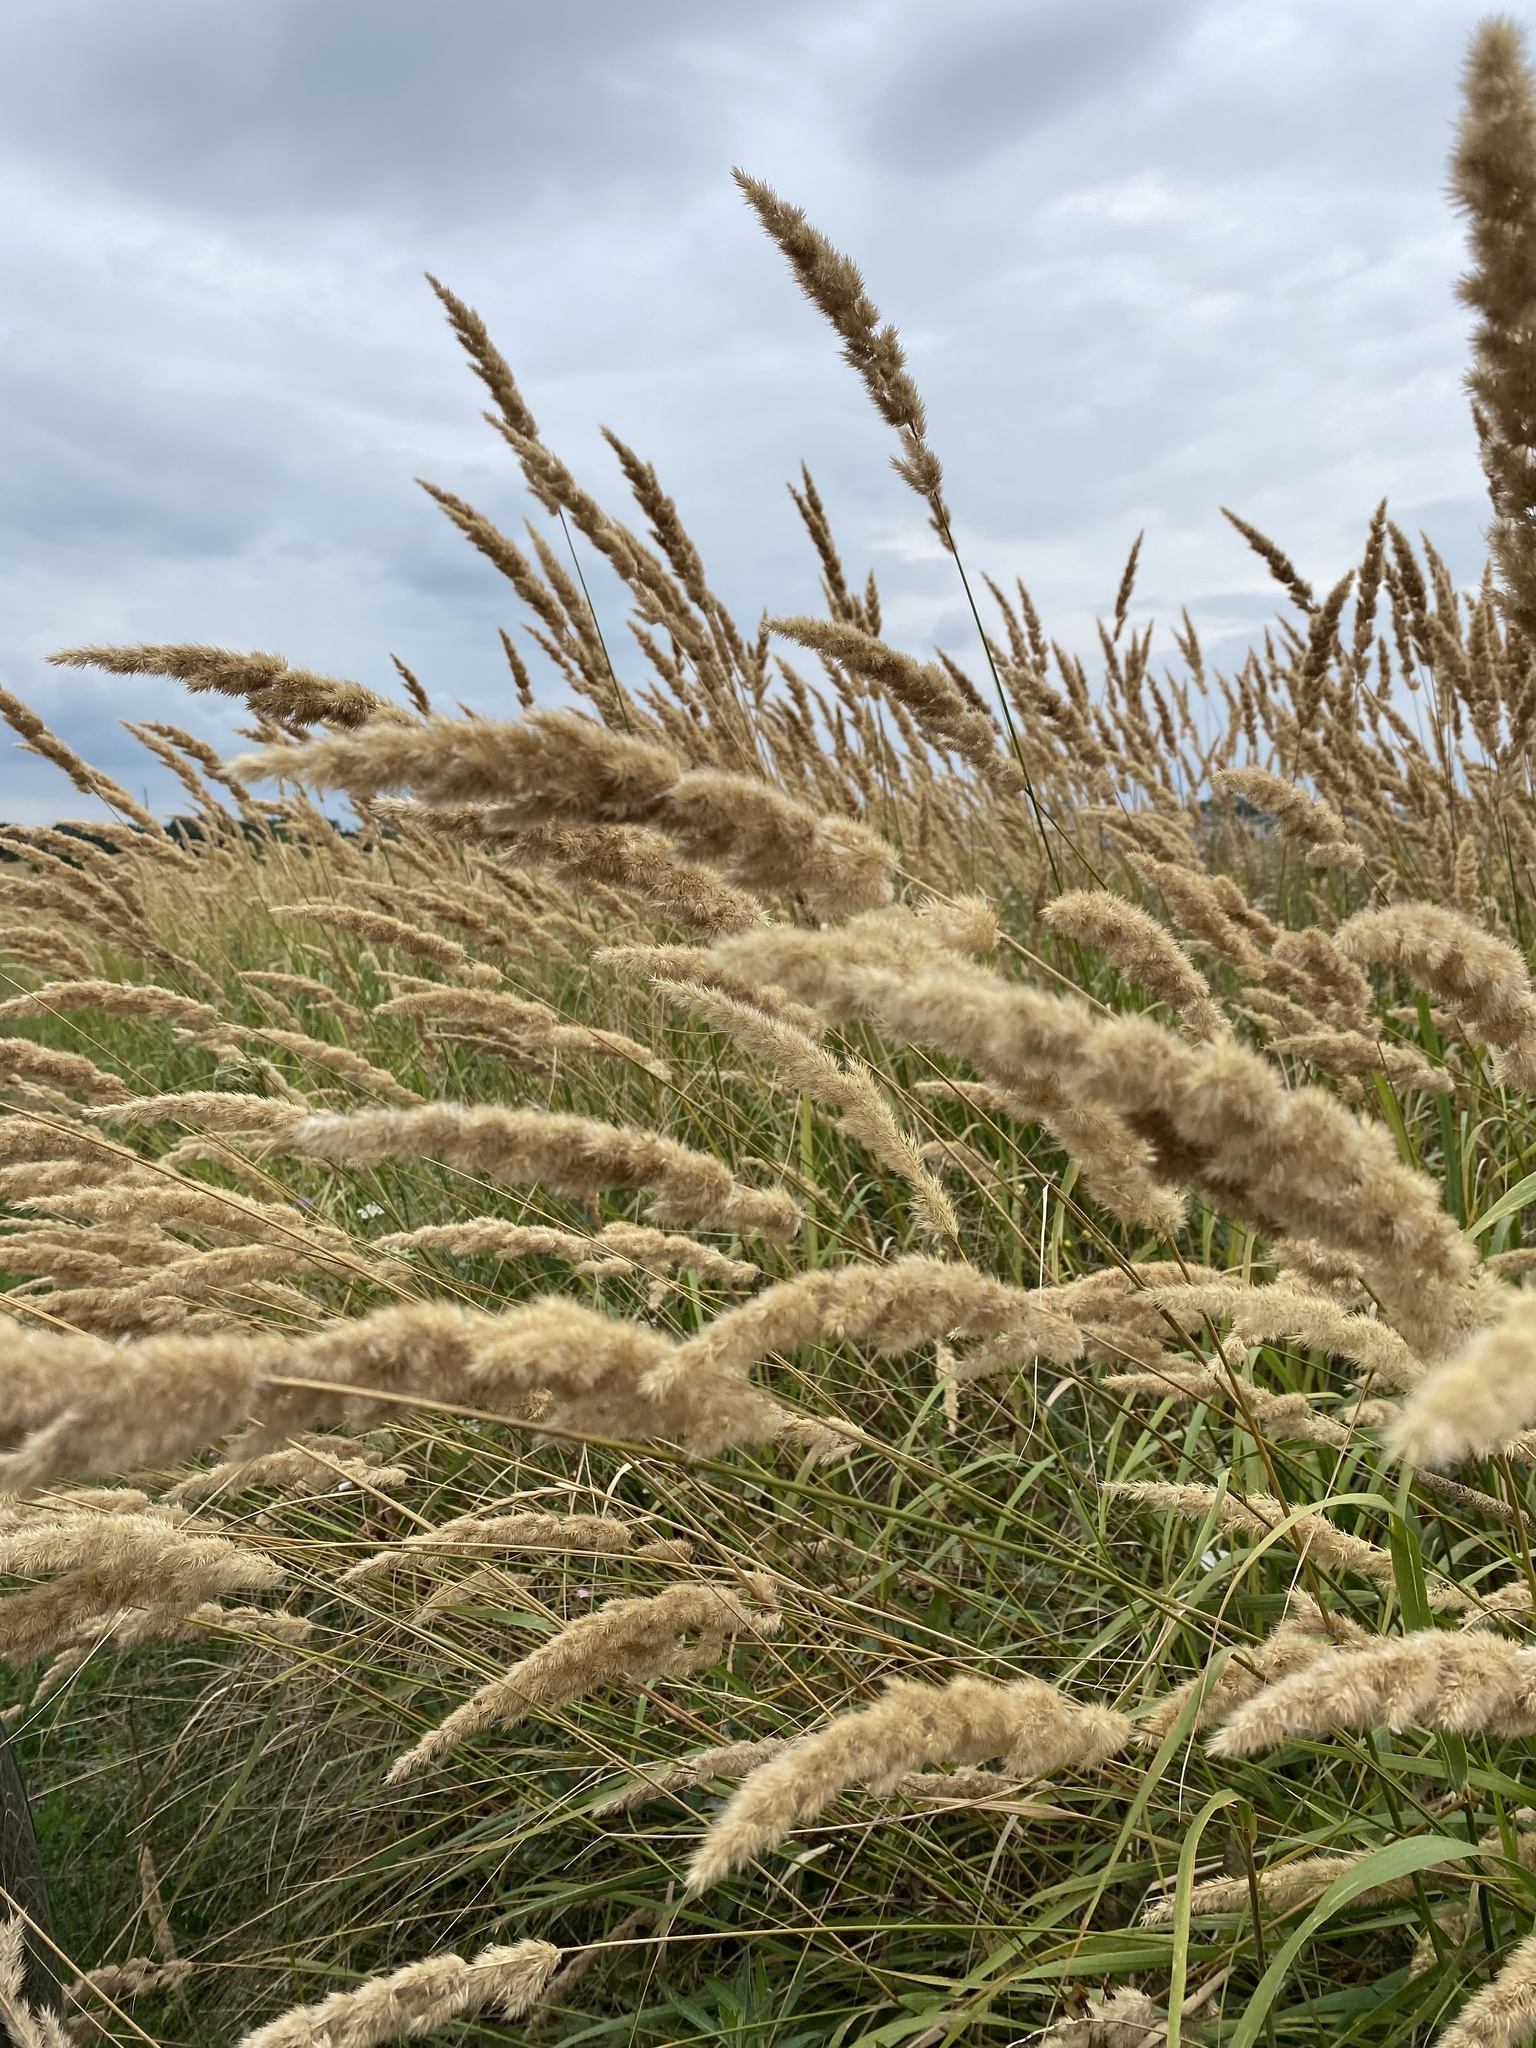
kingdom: Plantae
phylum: Tracheophyta
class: Liliopsida
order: Poales
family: Poaceae
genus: Calamagrostis
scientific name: Calamagrostis epigejos
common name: Wood small-reed
